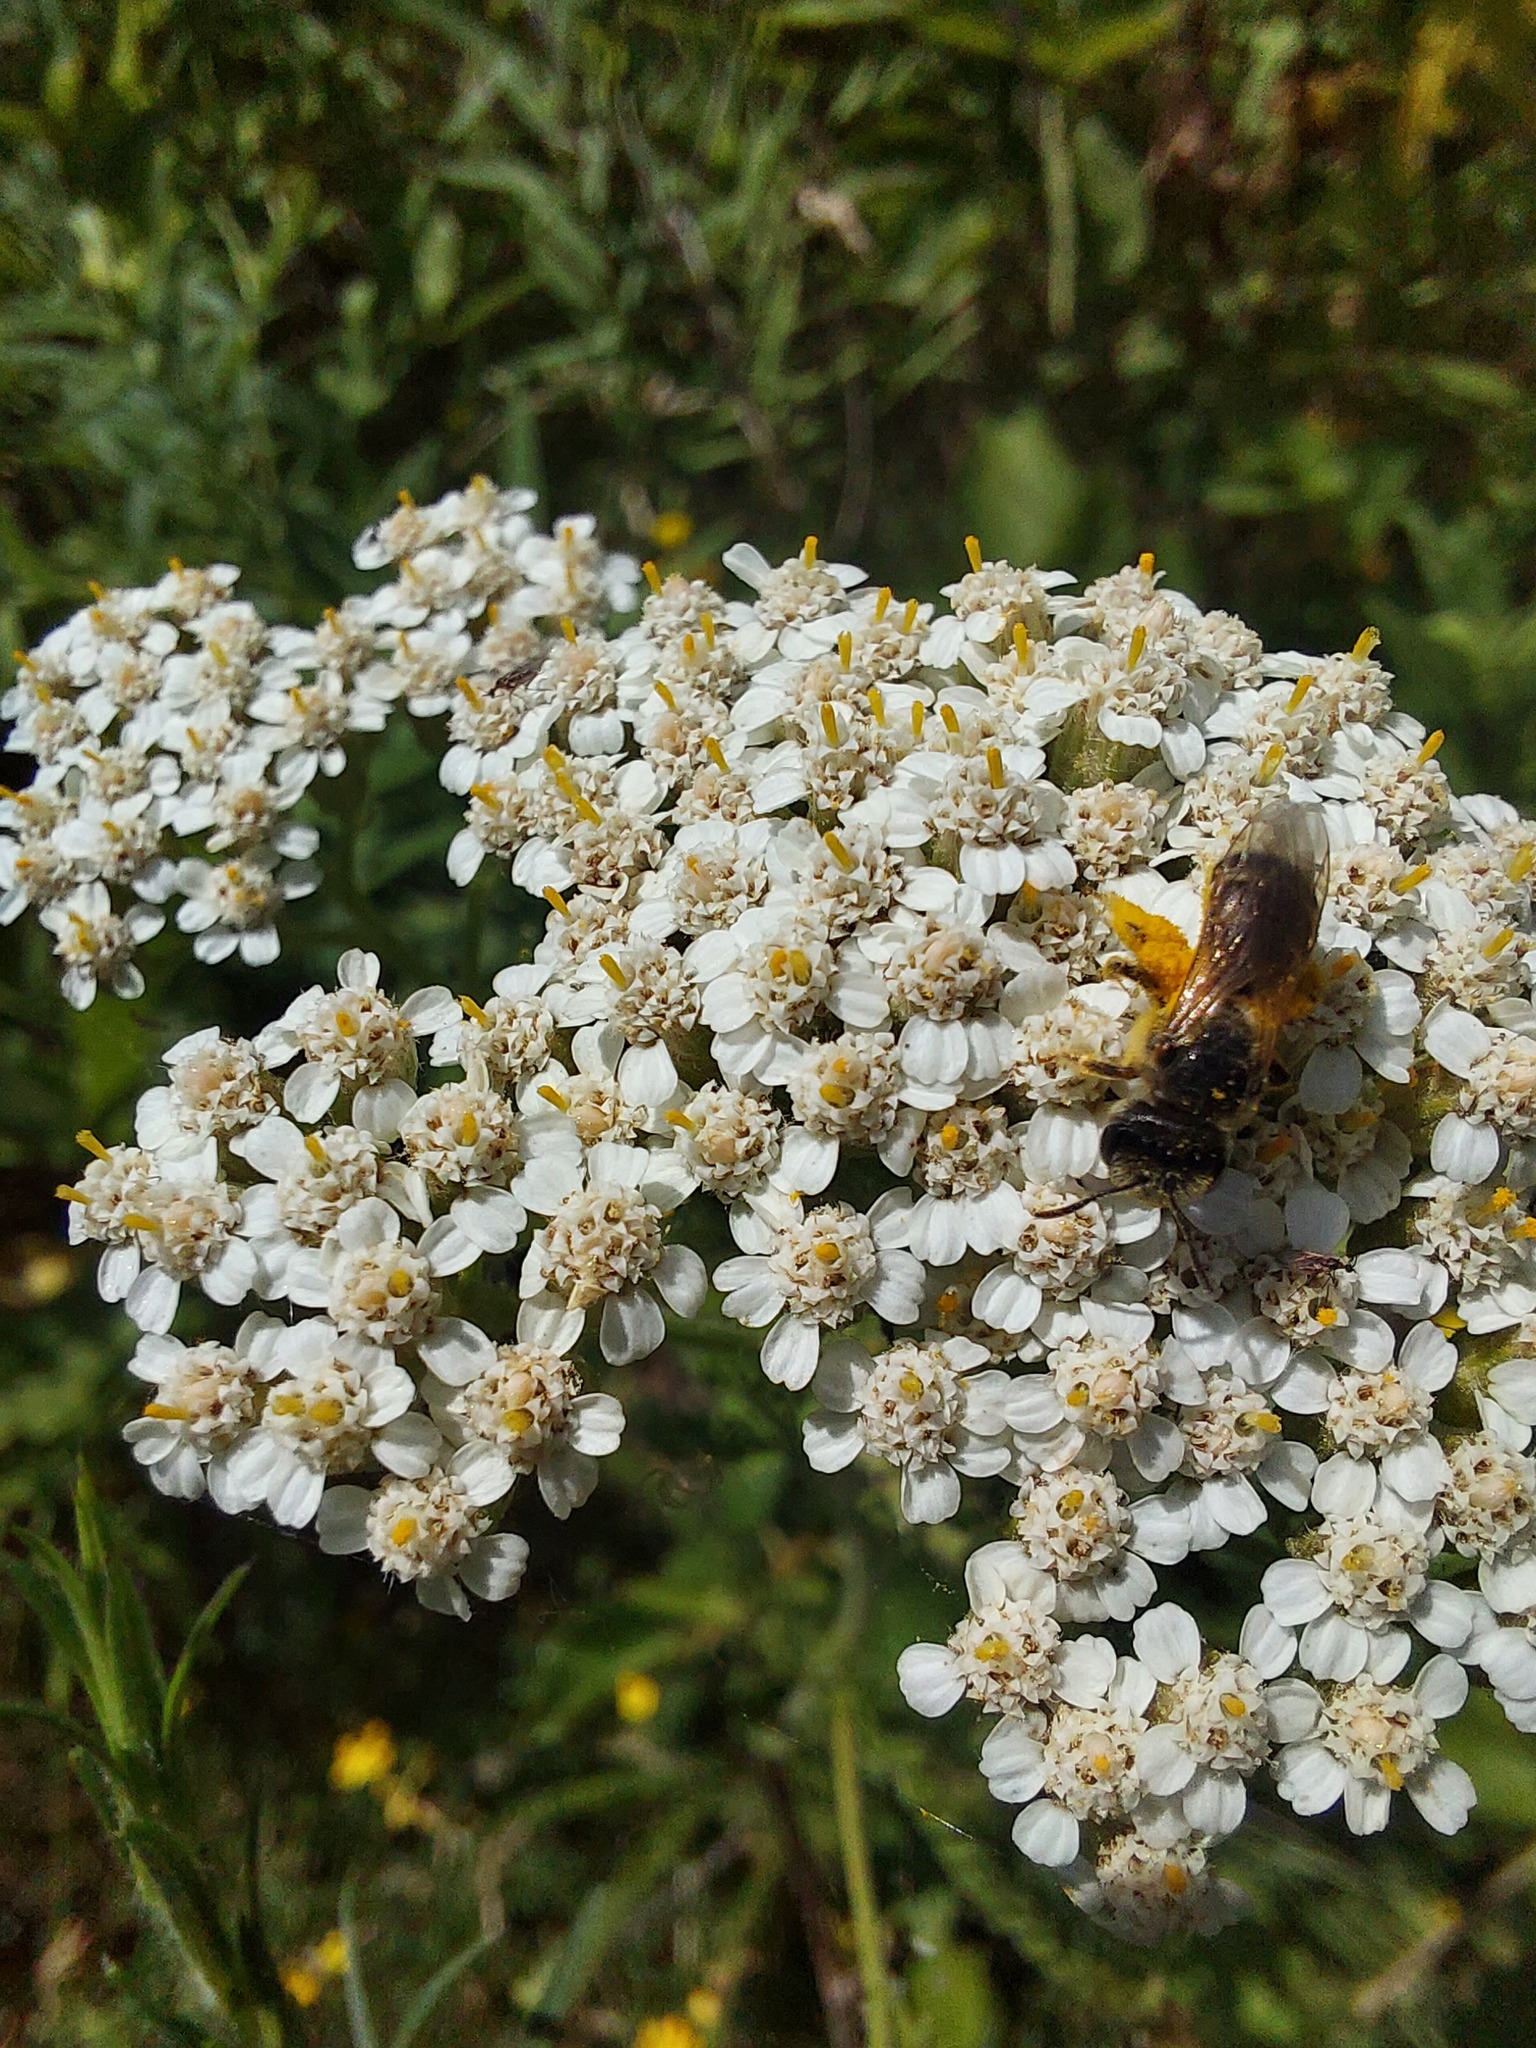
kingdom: Plantae
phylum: Tracheophyta
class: Magnoliopsida
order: Asterales
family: Asteraceae
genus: Achillea
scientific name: Achillea millefolium
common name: Yarrow
